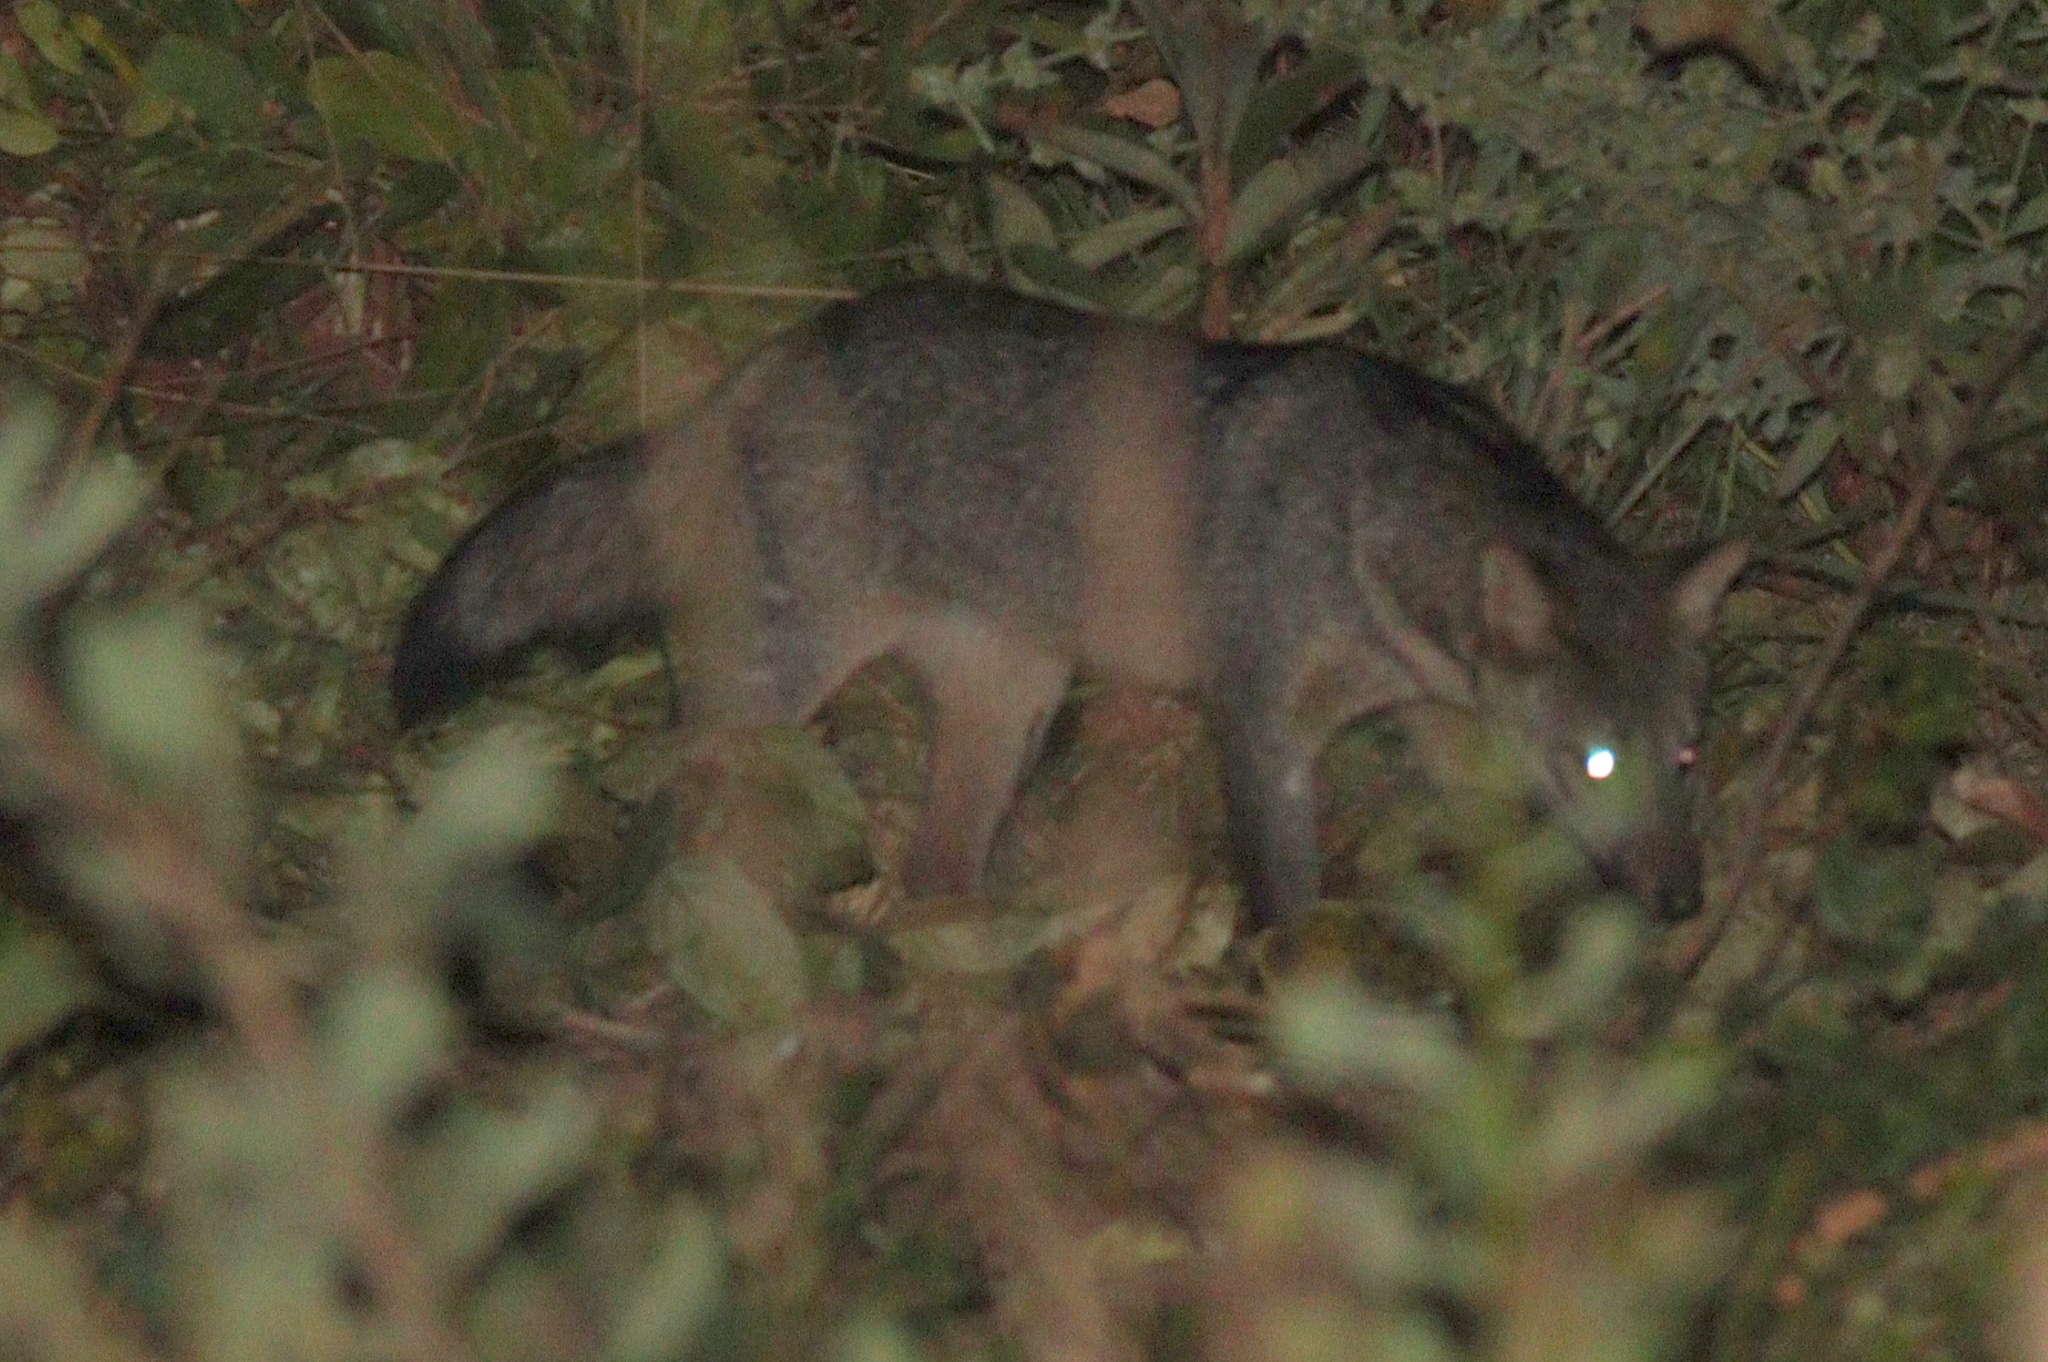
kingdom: Animalia
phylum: Chordata
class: Mammalia
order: Carnivora
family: Canidae
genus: Cerdocyon
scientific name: Cerdocyon thous
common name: Crab-eating fox
